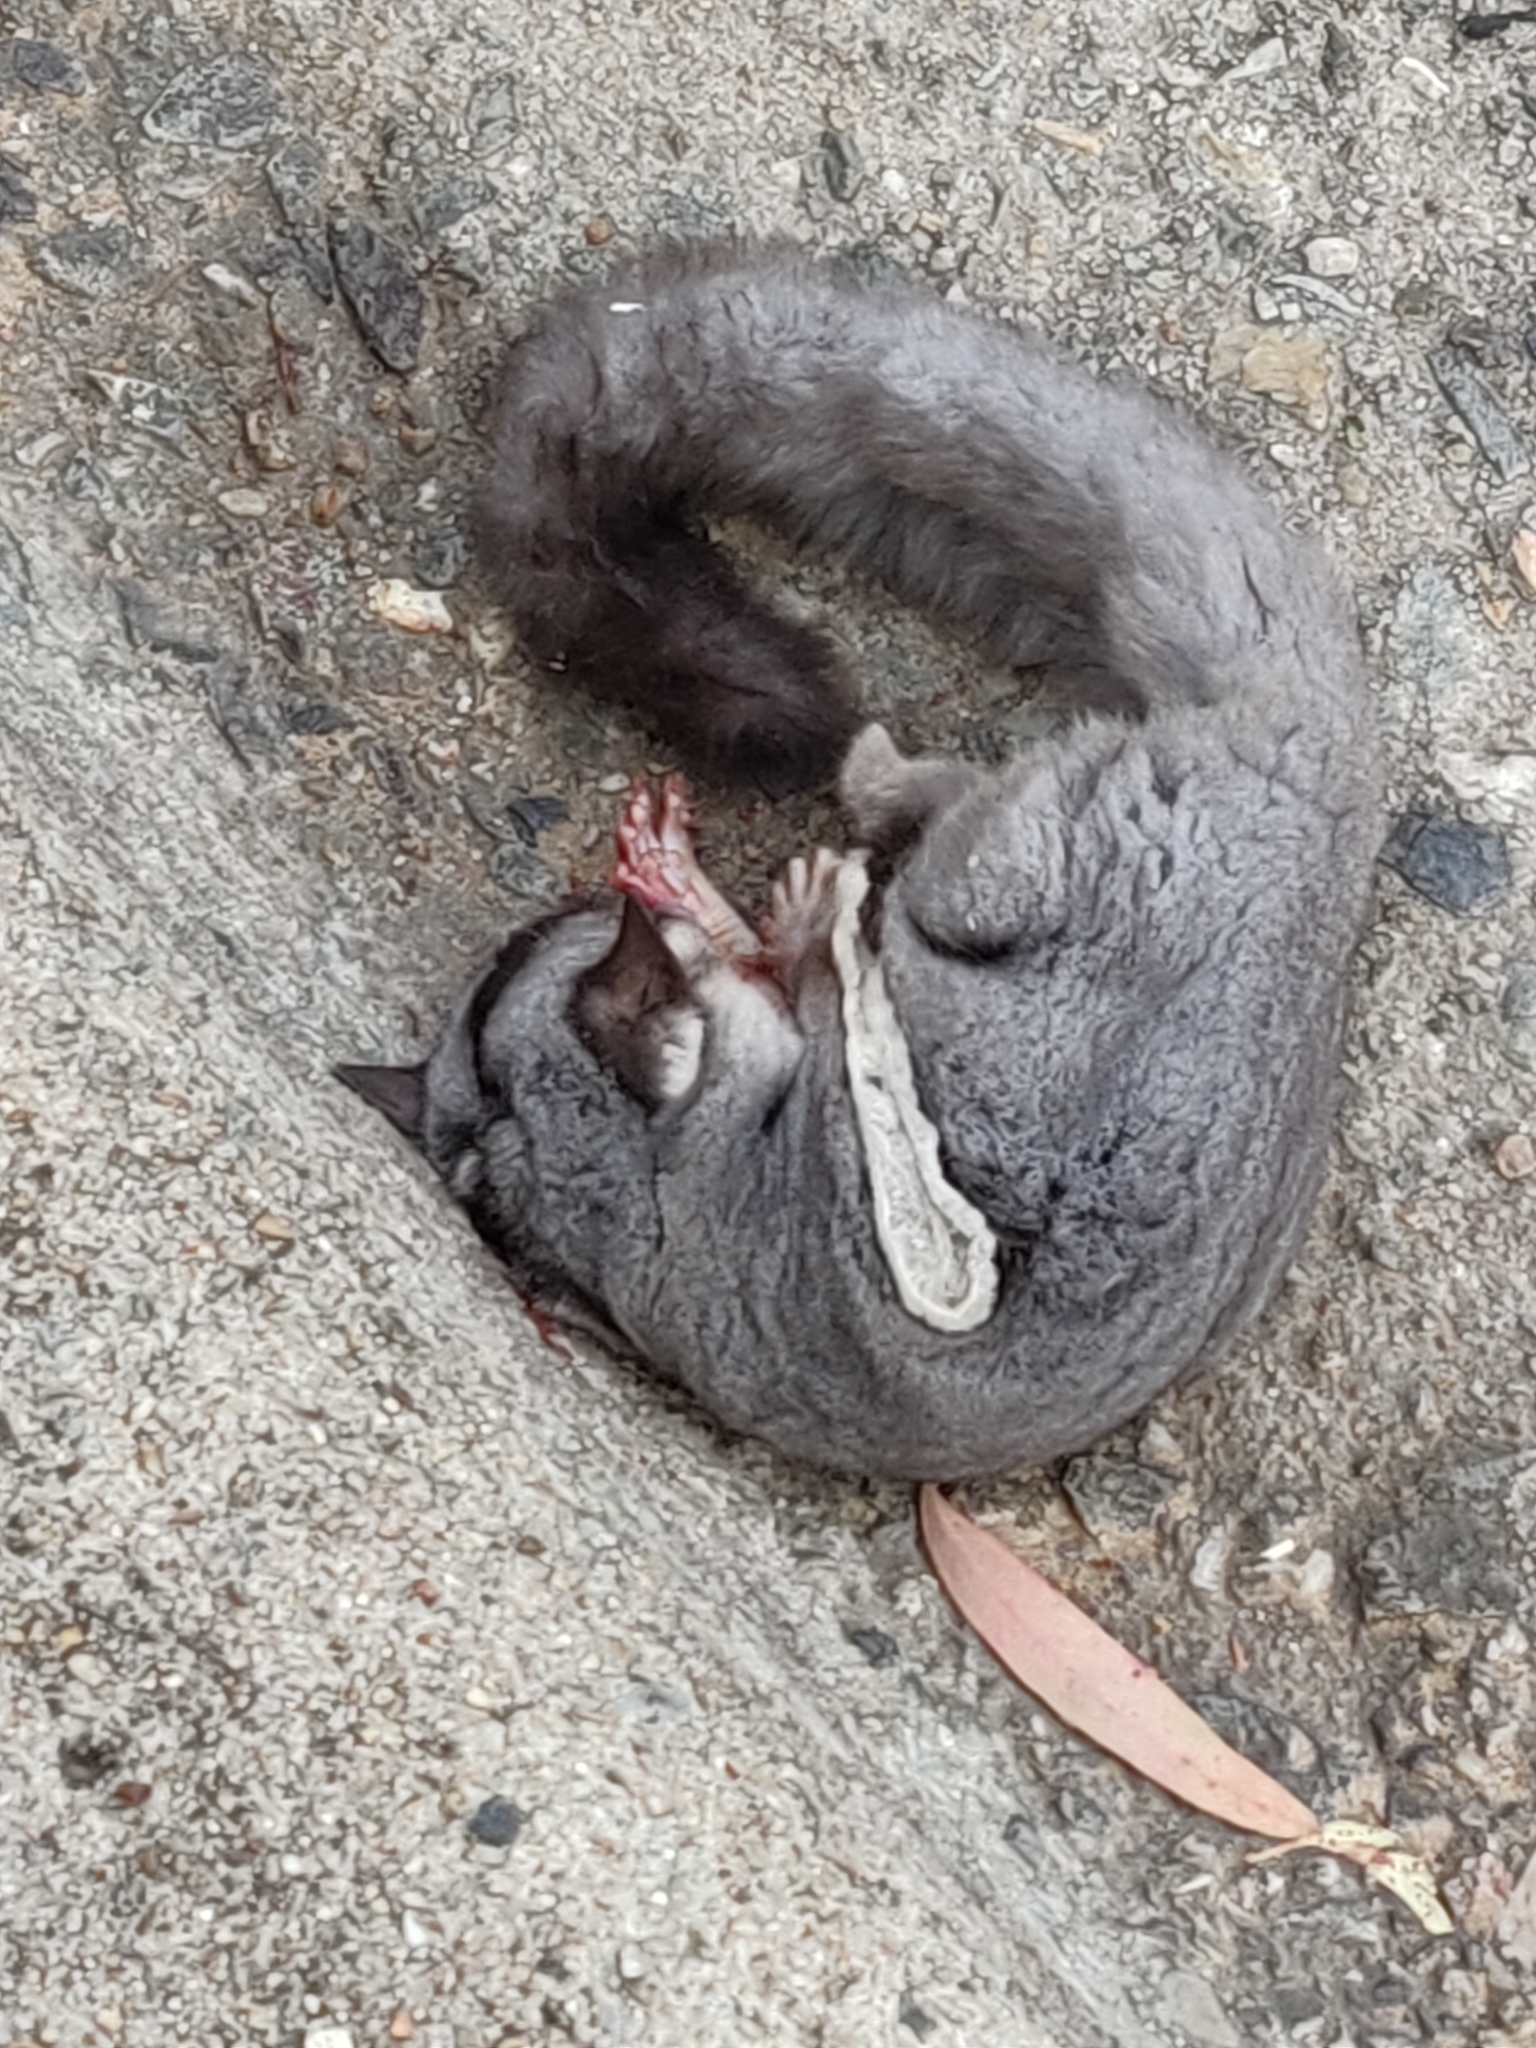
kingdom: Animalia
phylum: Chordata
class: Mammalia
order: Diprotodontia
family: Petauridae
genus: Petaurus
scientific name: Petaurus breviceps
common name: Sugar glider
